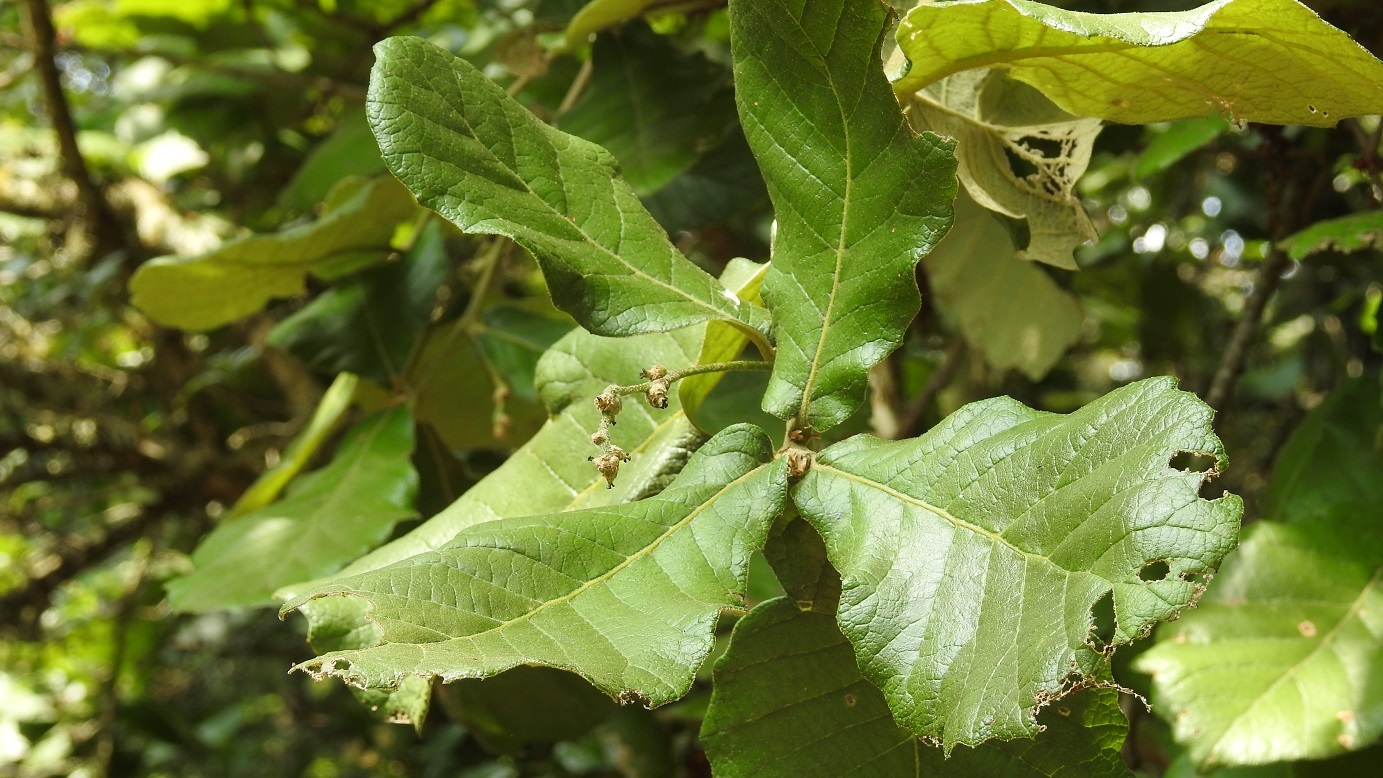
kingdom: Plantae
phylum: Tracheophyta
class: Magnoliopsida
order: Fagales
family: Fagaceae
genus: Quercus
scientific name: Quercus rugosa
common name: Netleaf oak
